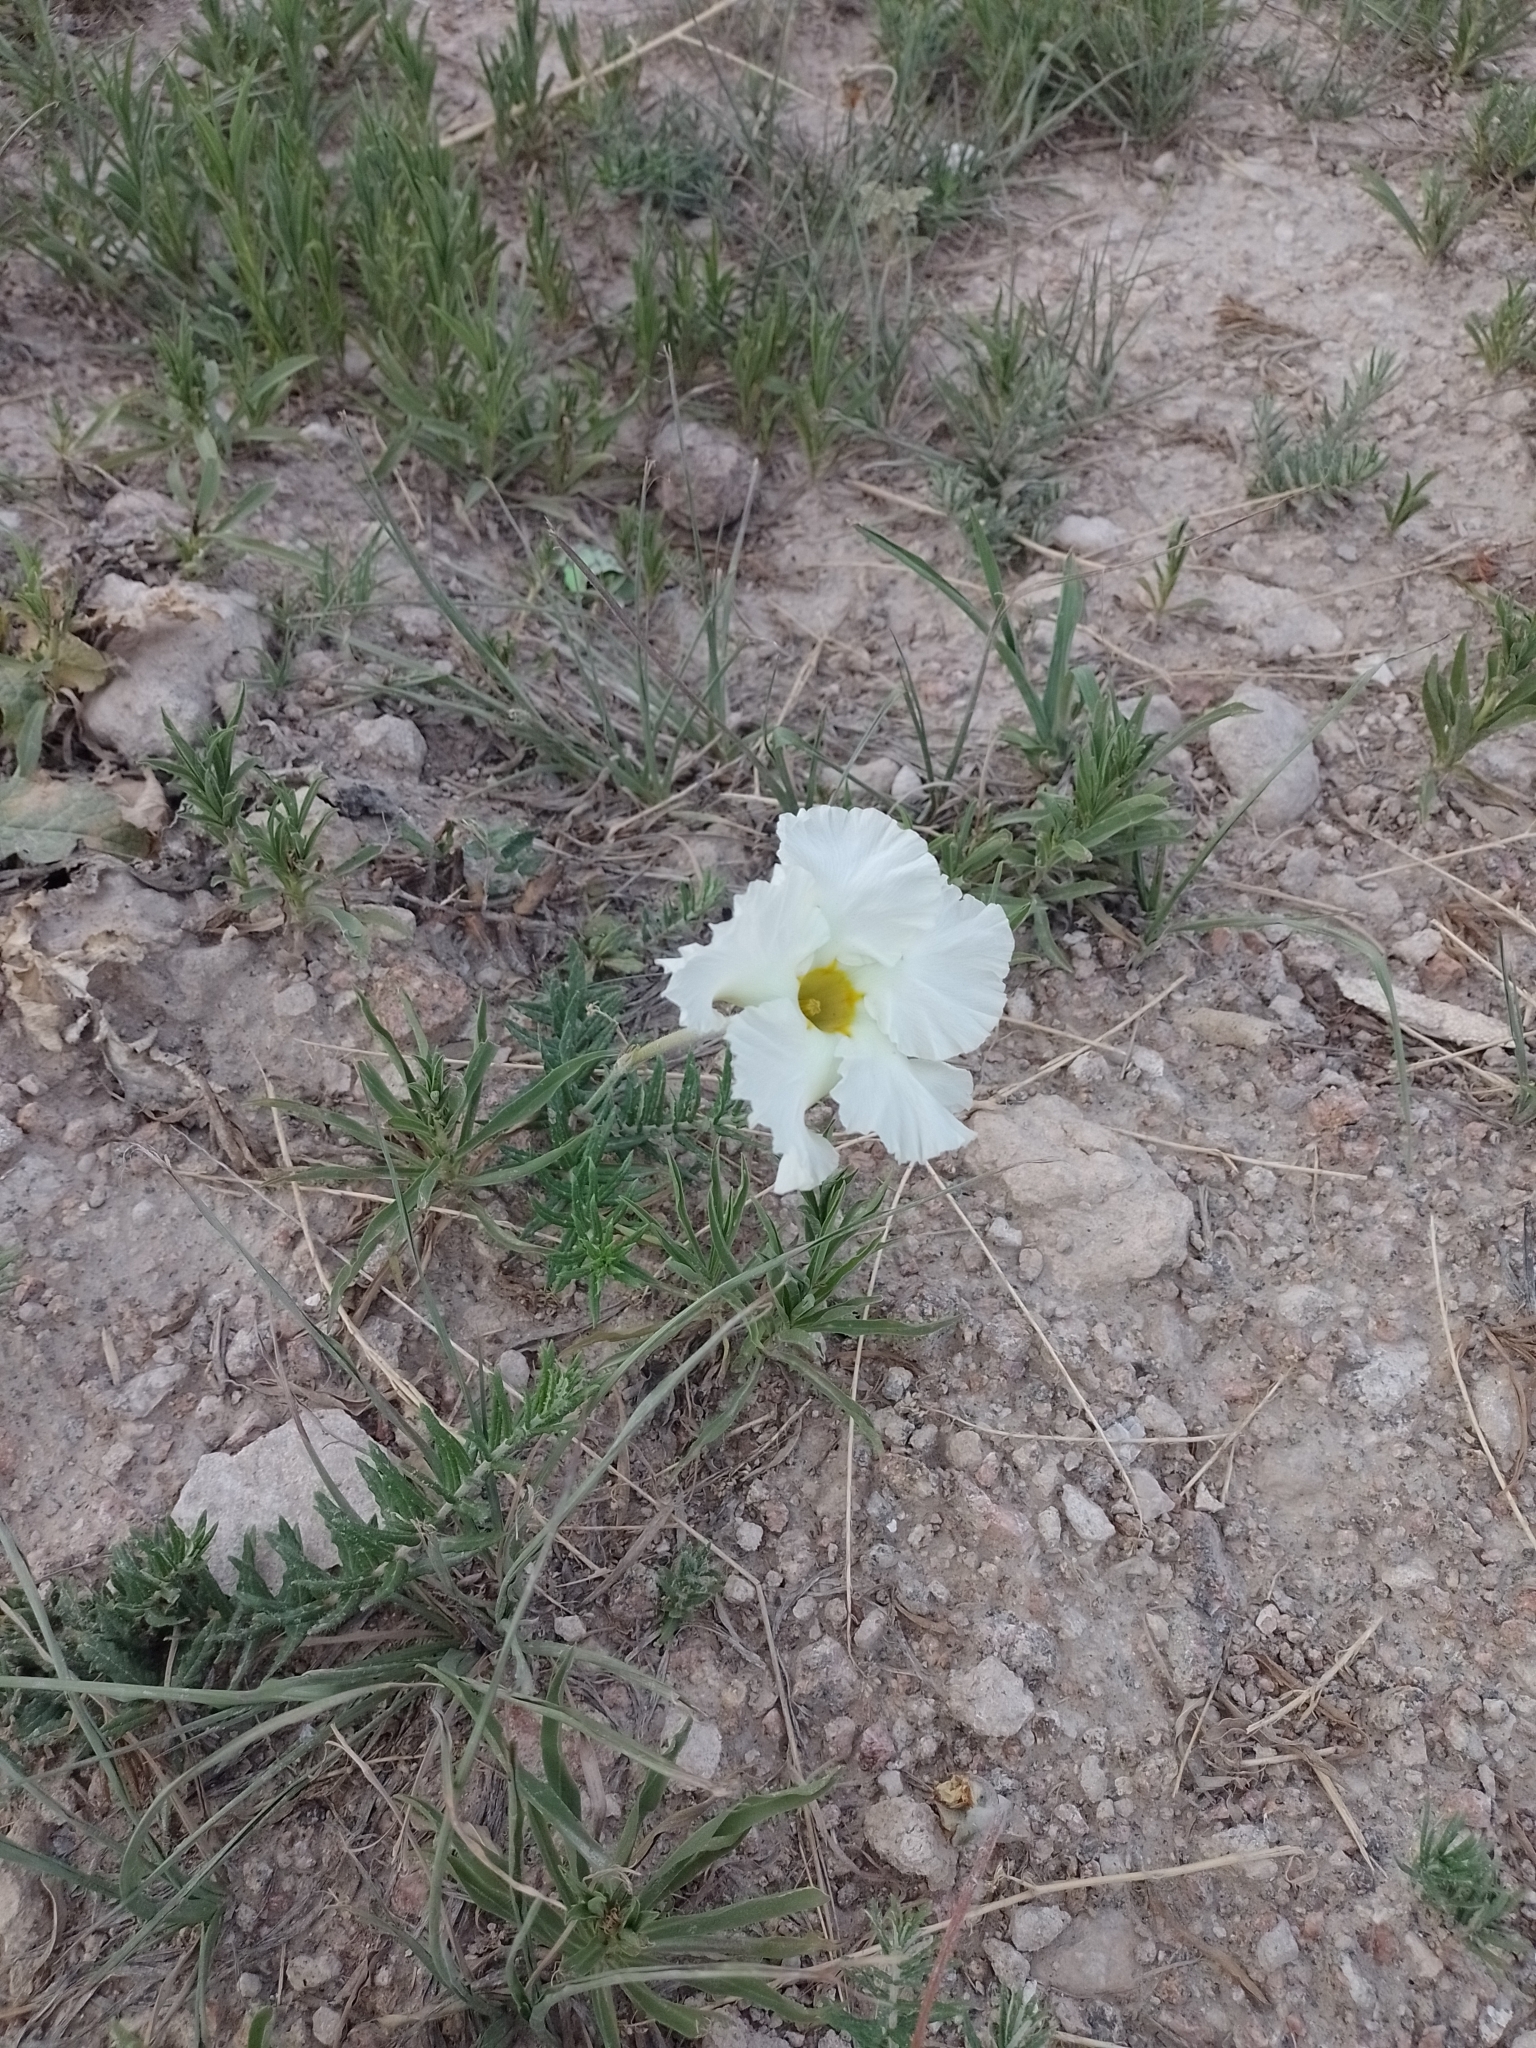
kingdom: Plantae
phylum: Tracheophyta
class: Magnoliopsida
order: Gentianales
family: Apocynaceae
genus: Mandevilla
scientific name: Mandevilla petraea
